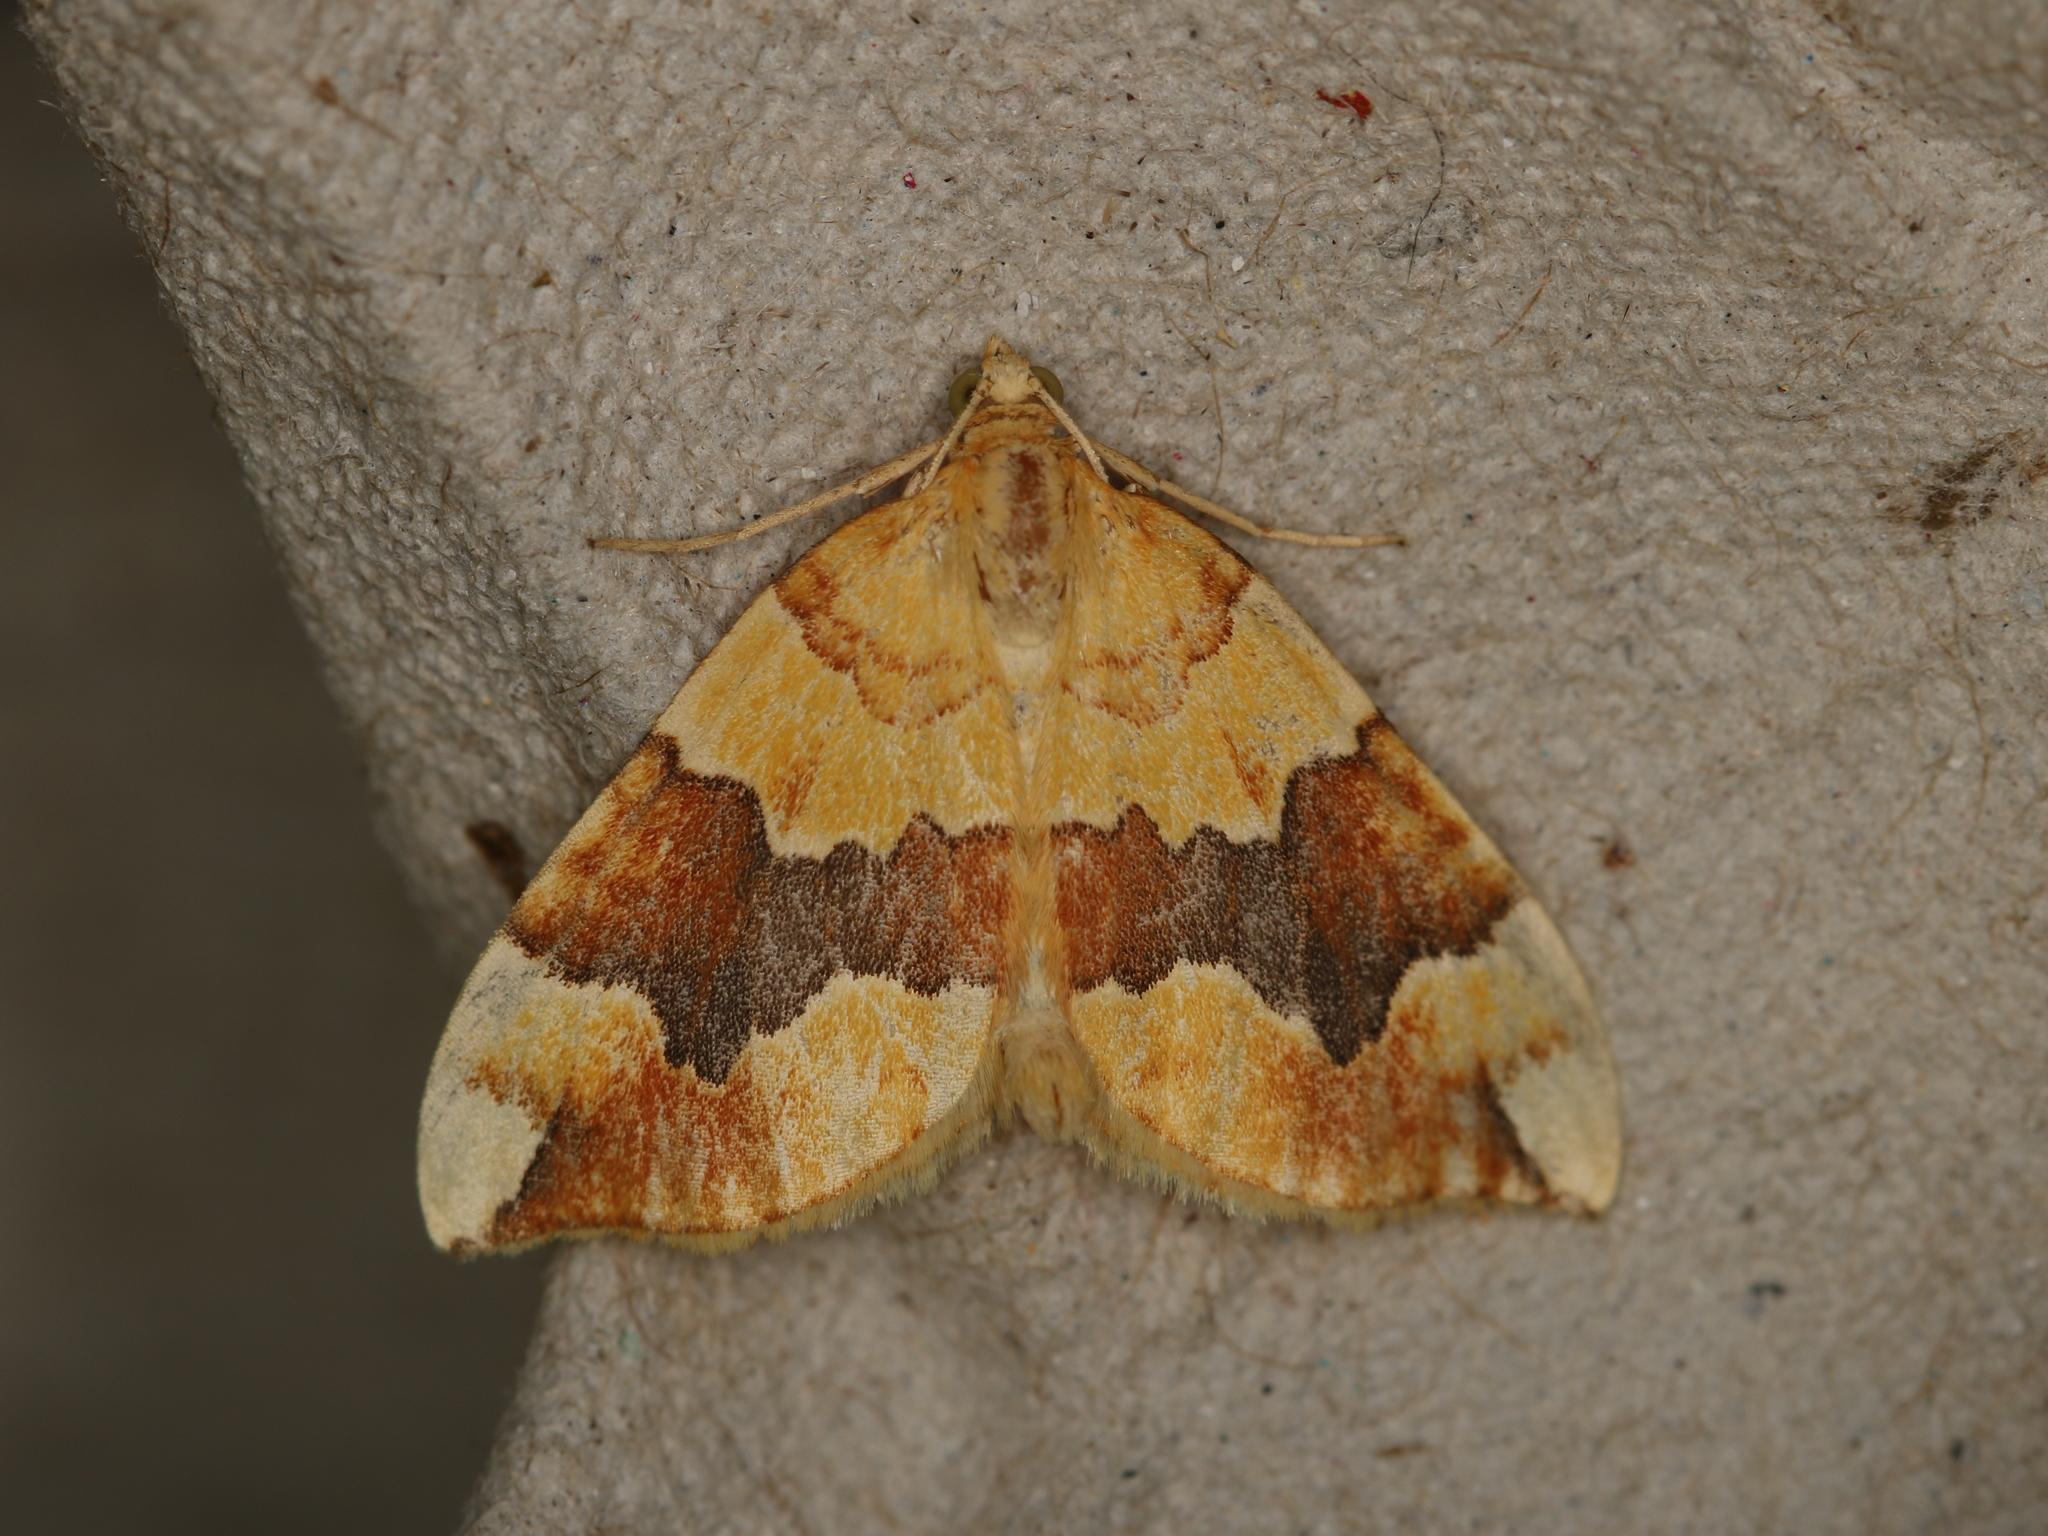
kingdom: Animalia
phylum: Arthropoda
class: Insecta
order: Lepidoptera
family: Geometridae
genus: Cidaria
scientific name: Cidaria fulvata
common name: Barred yellow
